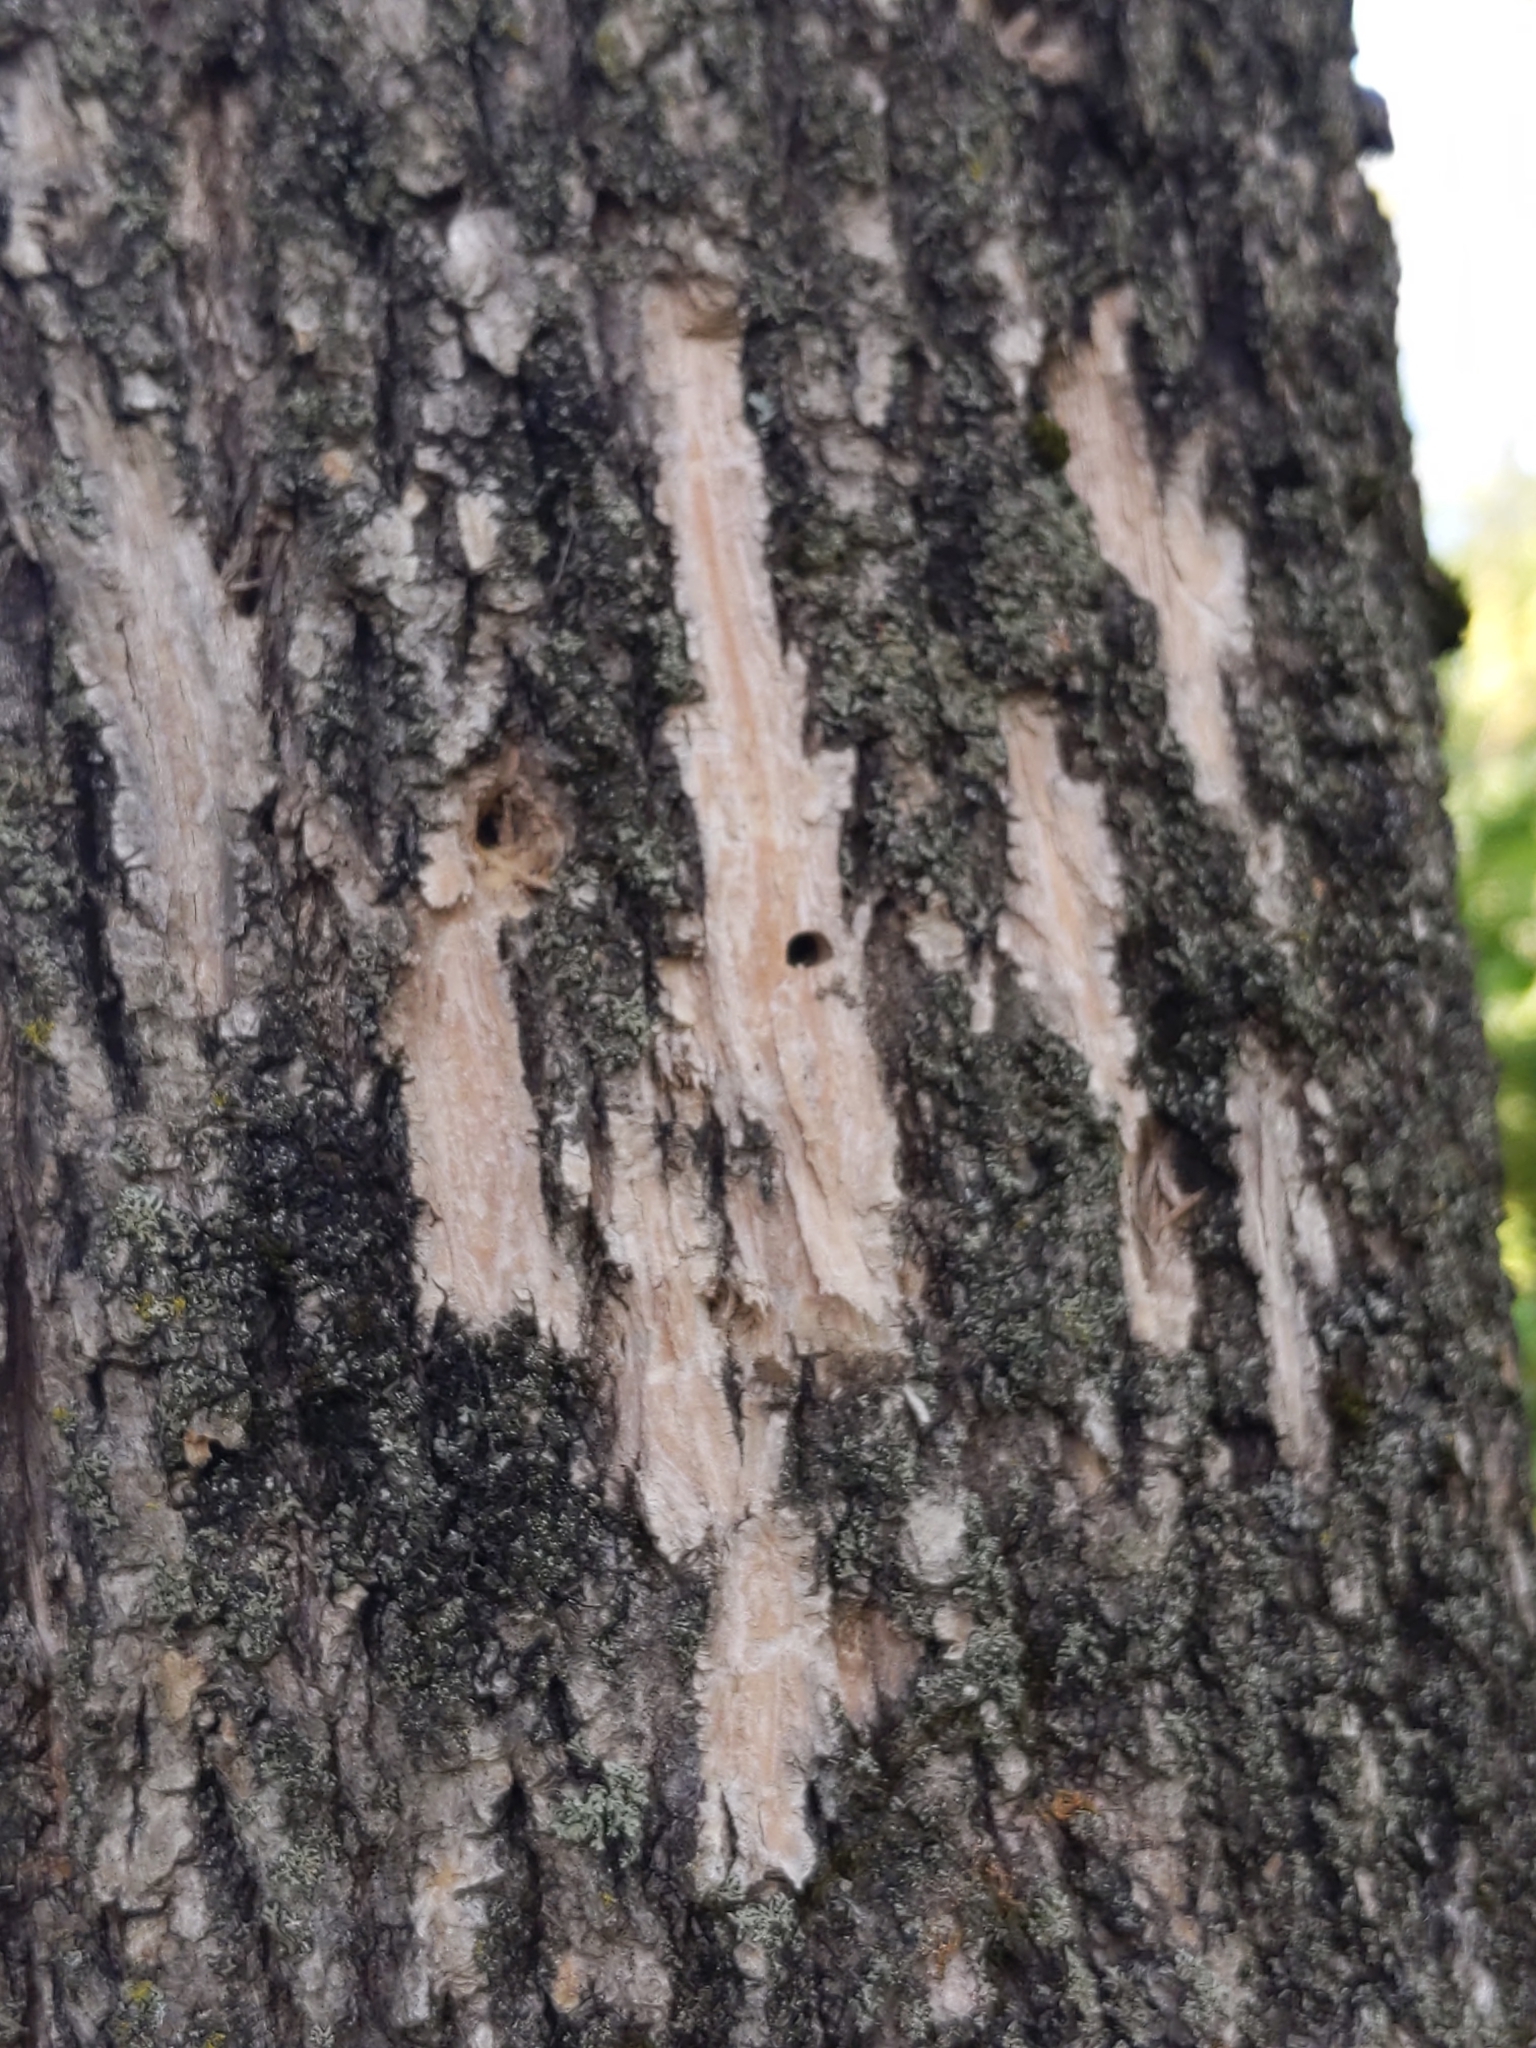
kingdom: Animalia
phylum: Arthropoda
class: Insecta
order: Coleoptera
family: Buprestidae
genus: Agrilus
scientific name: Agrilus planipennis
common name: Emerald ash borer
